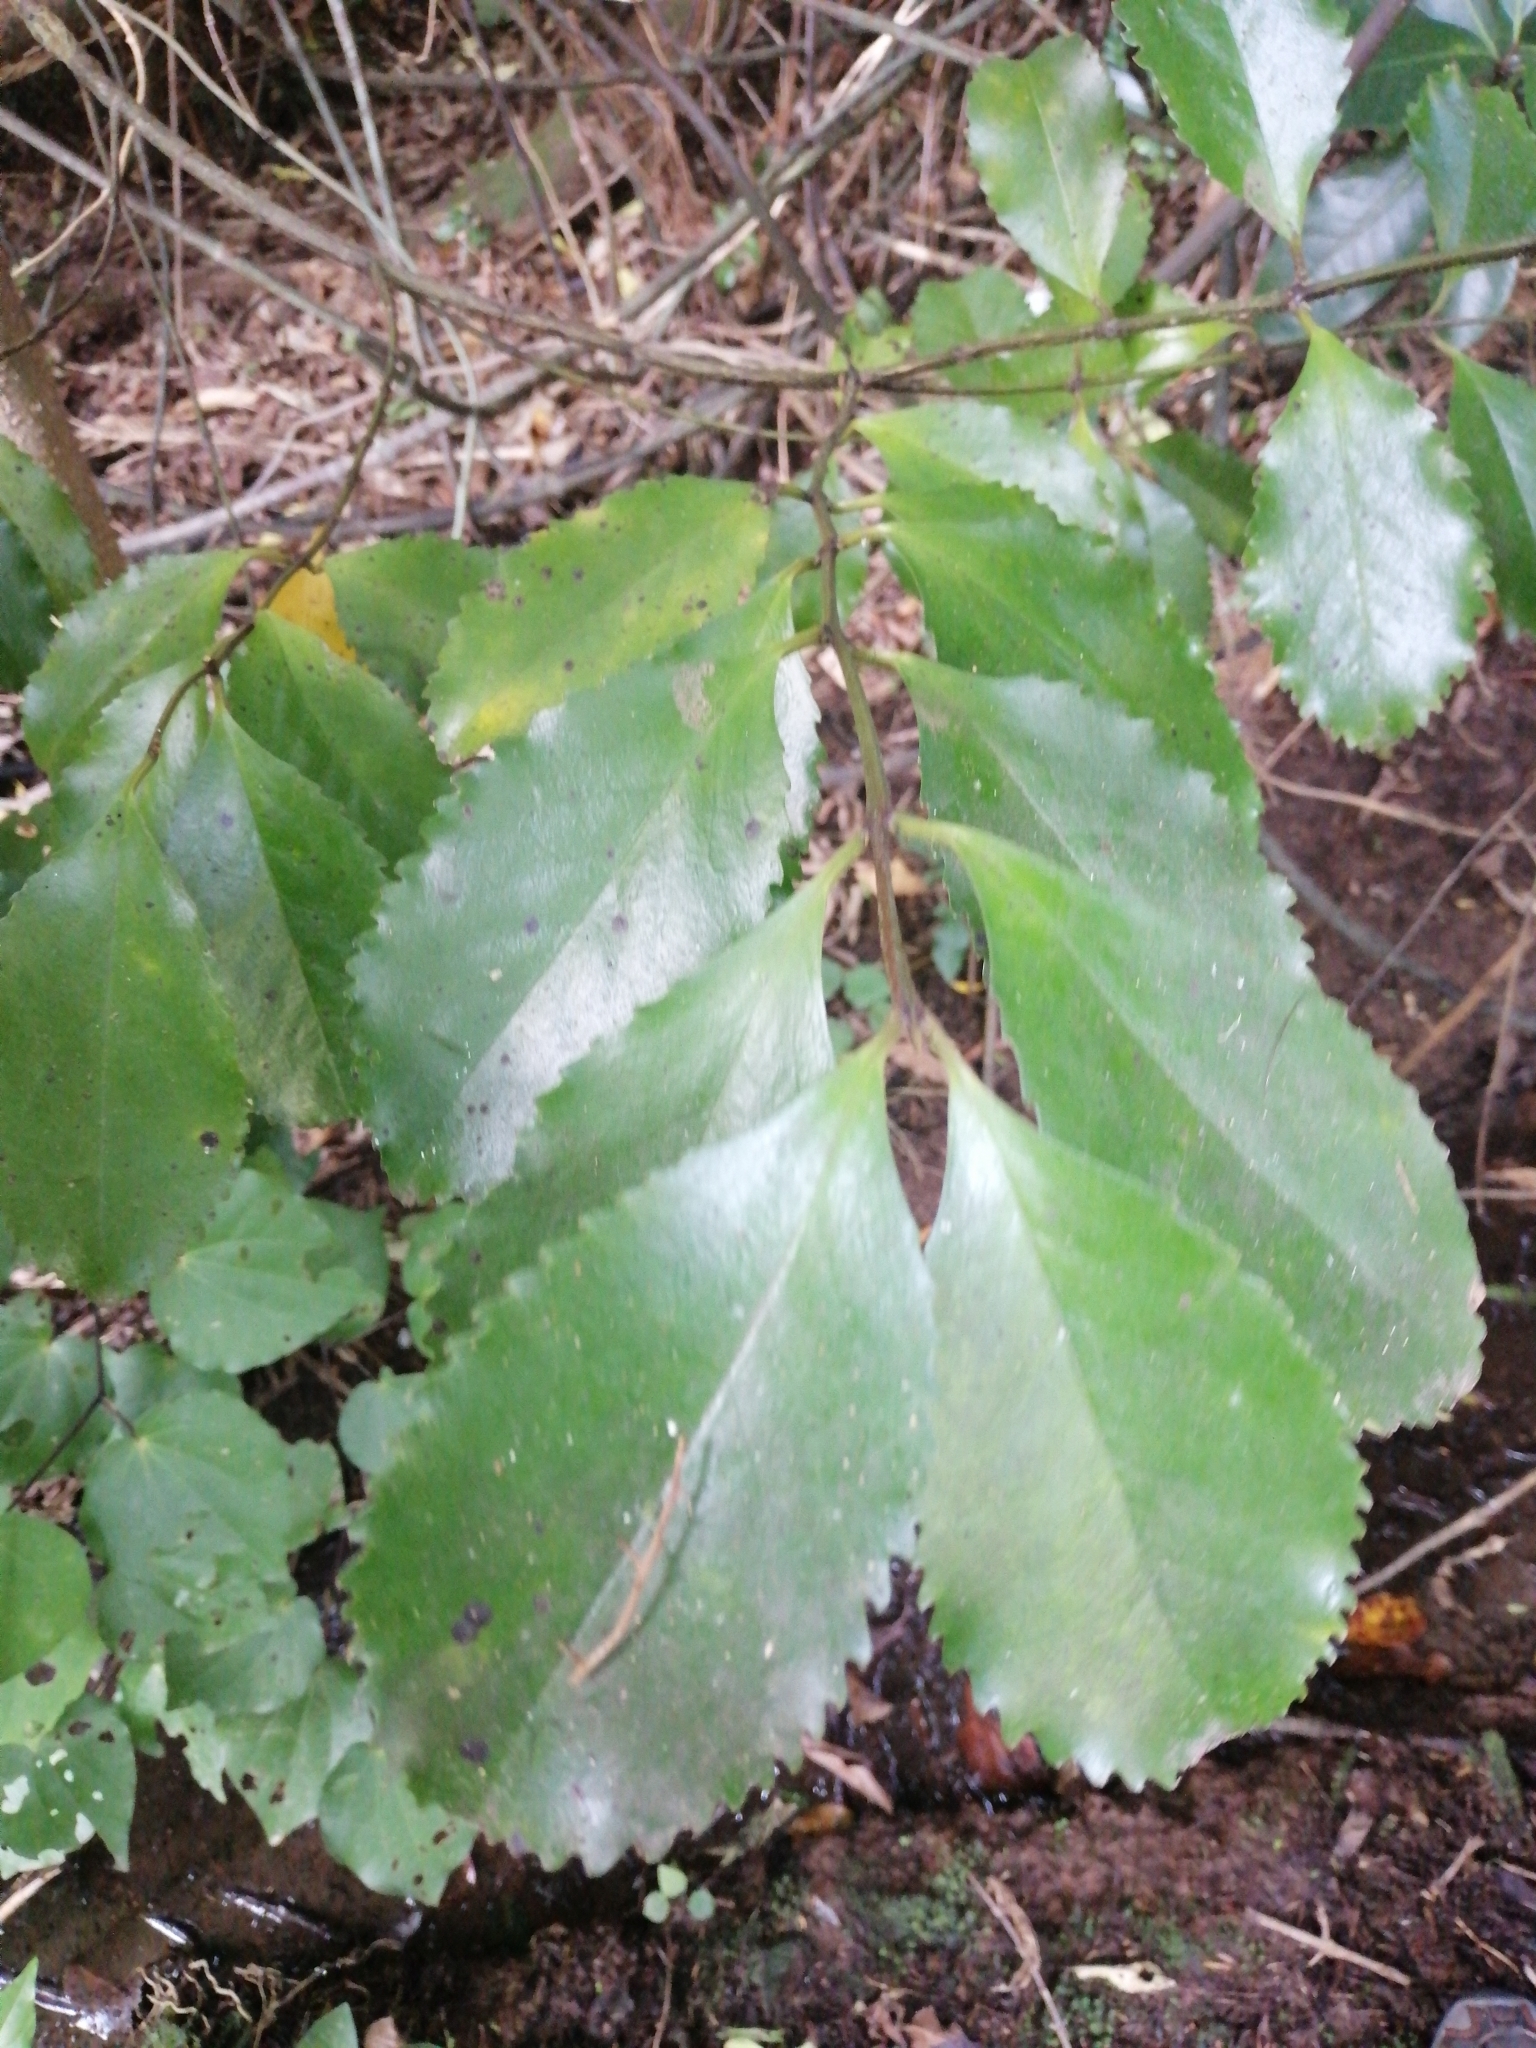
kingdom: Plantae
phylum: Tracheophyta
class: Magnoliopsida
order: Laurales
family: Atherospermataceae
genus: Laurelia
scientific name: Laurelia novae-zelandiae
